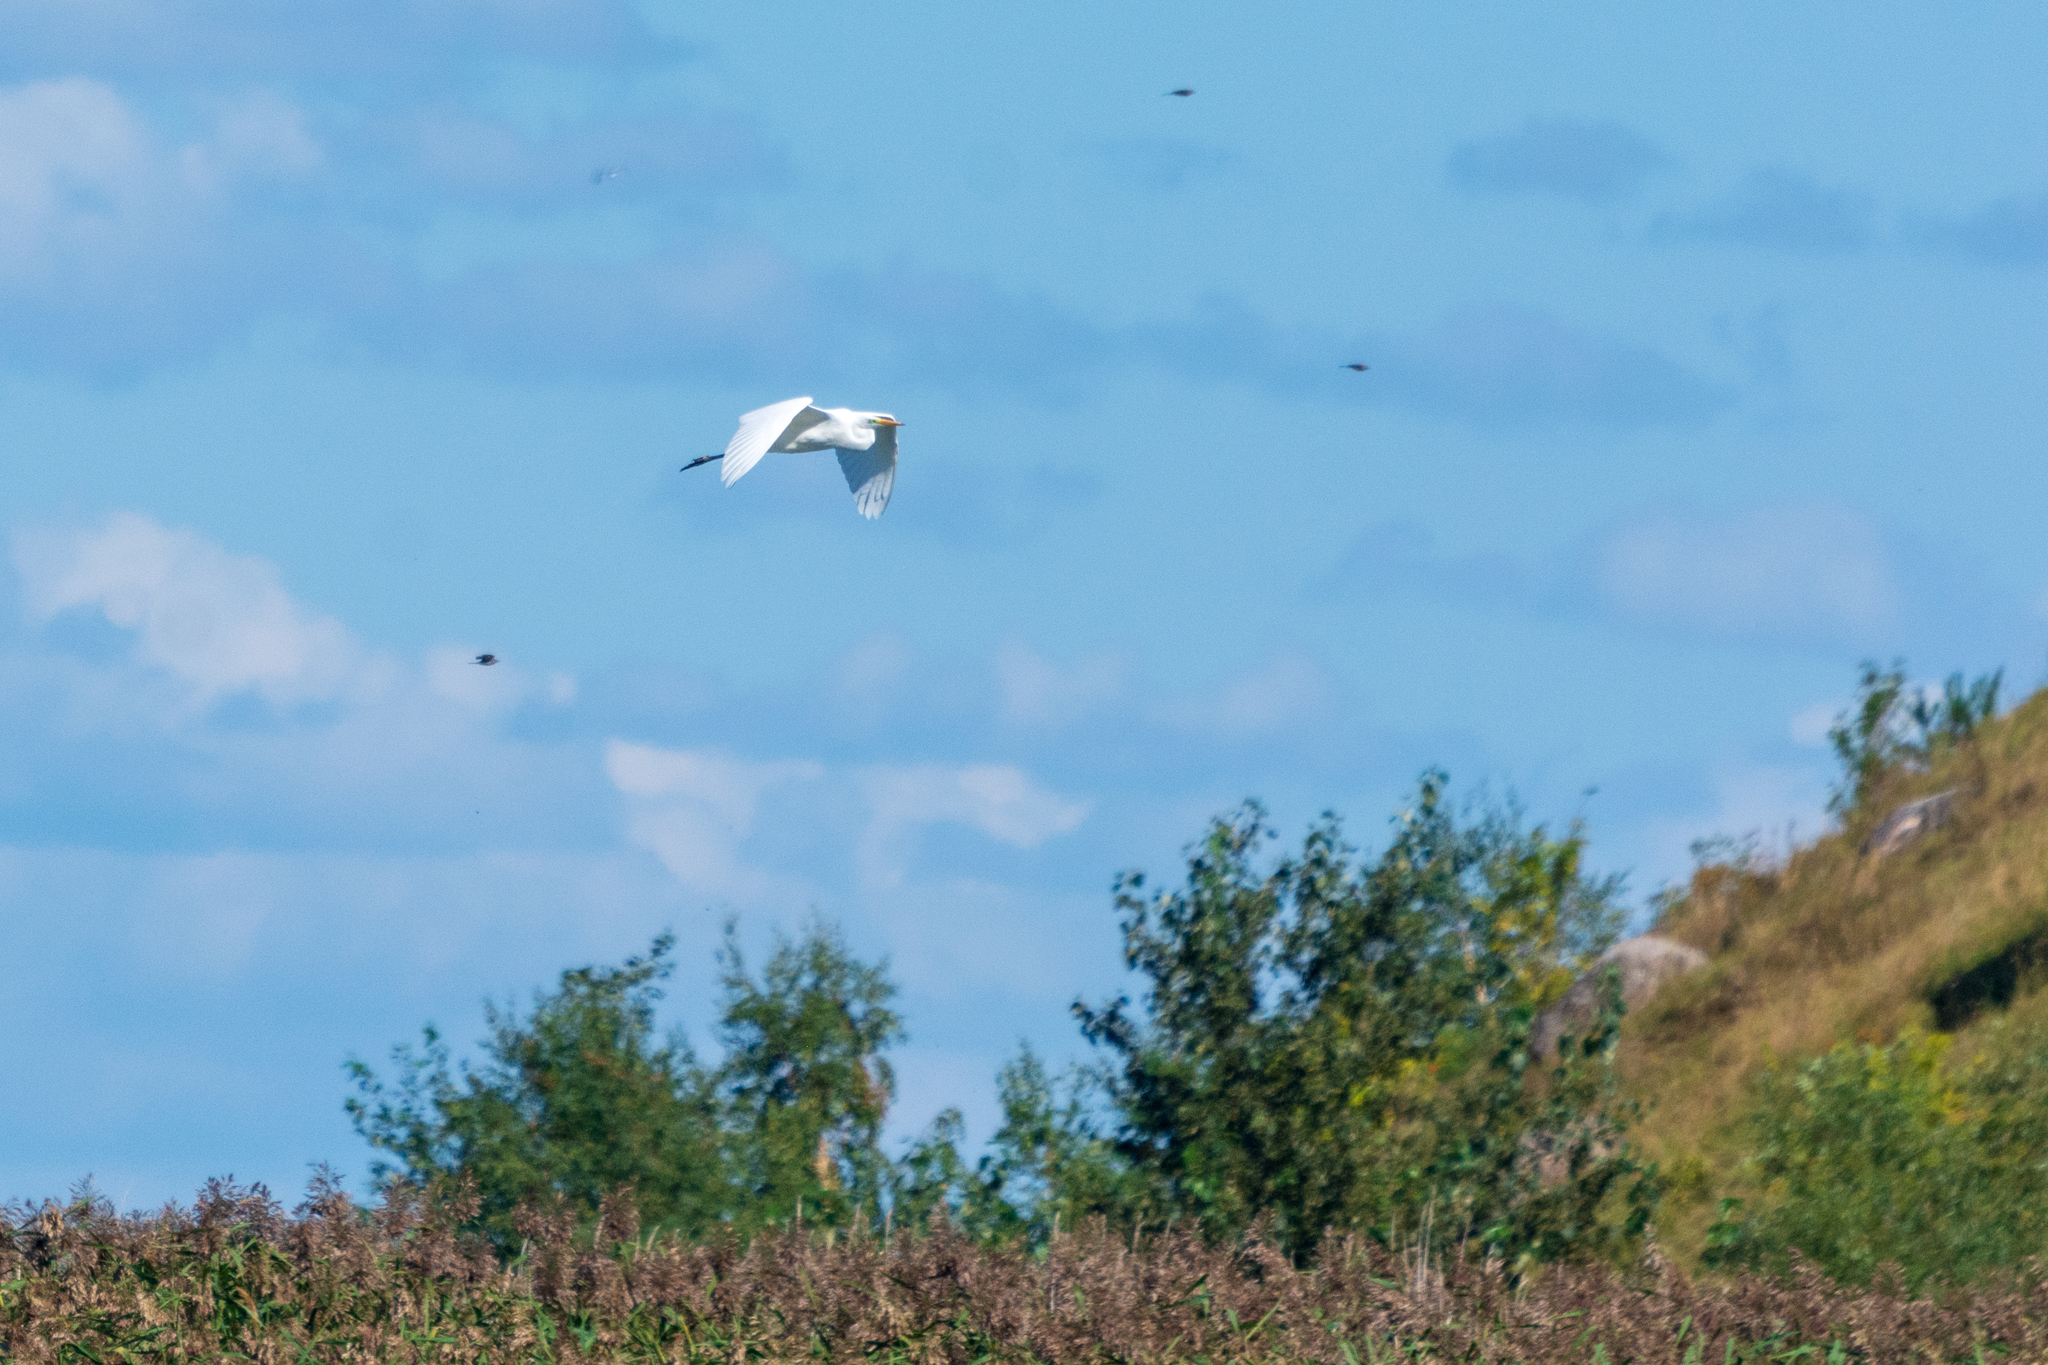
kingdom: Animalia
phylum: Chordata
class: Aves
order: Pelecaniformes
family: Ardeidae
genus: Ardea
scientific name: Ardea alba
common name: Great egret
